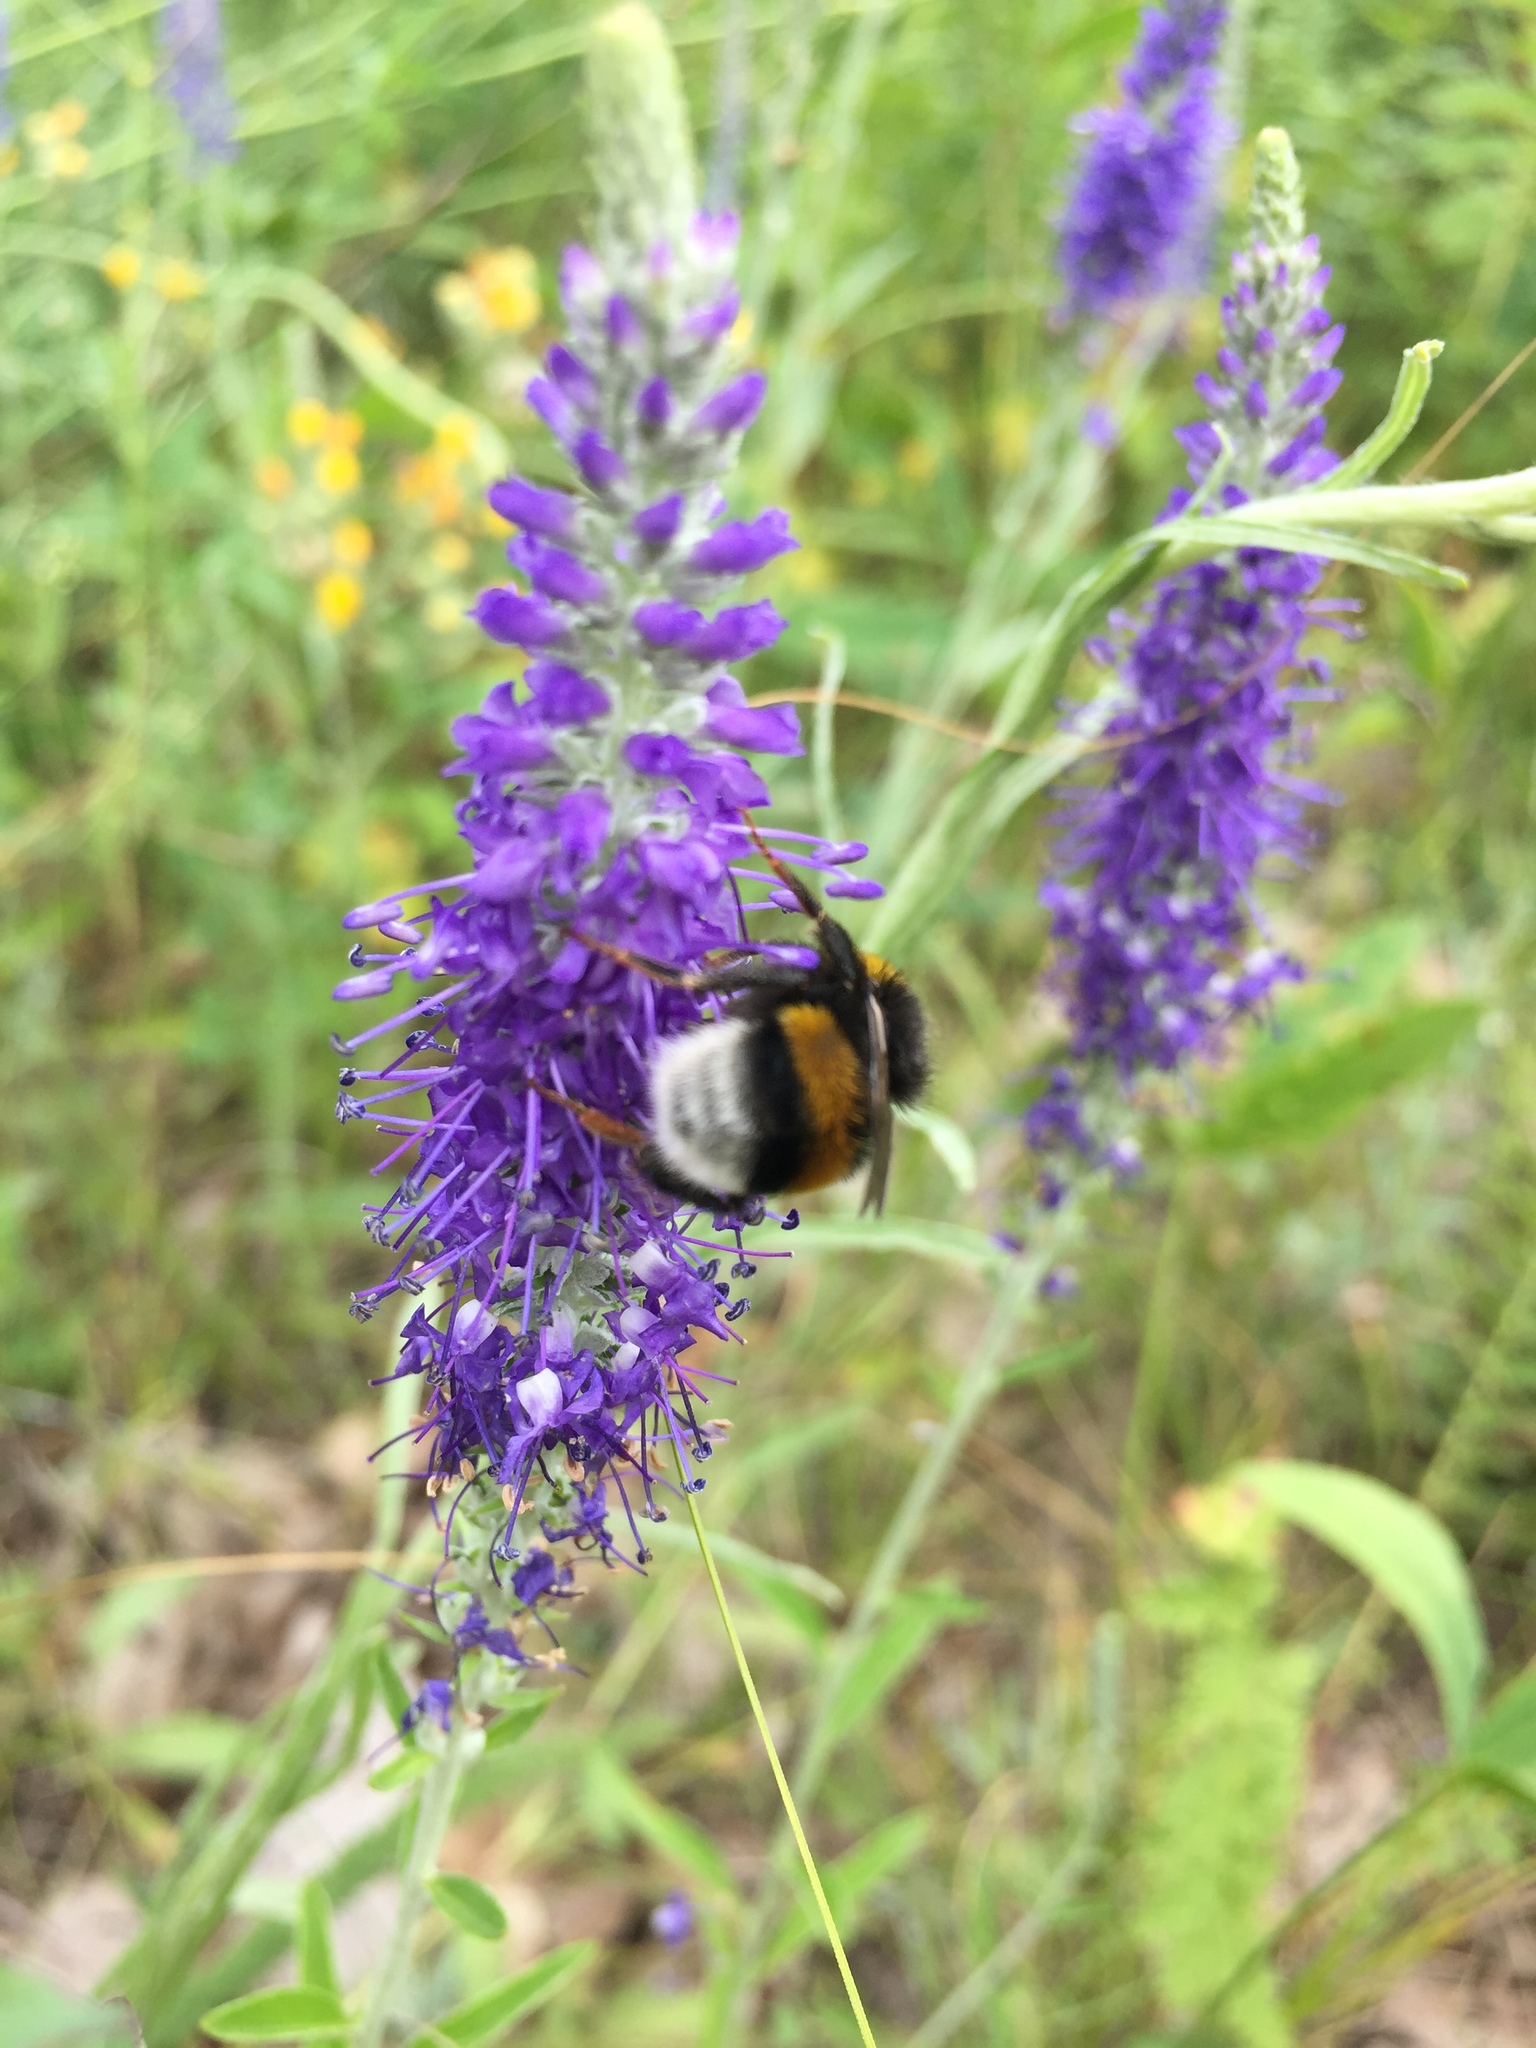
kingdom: Animalia
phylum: Arthropoda
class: Insecta
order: Hymenoptera
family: Apidae
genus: Bombus
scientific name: Bombus terrestris
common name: Buff-tailed bumblebee
